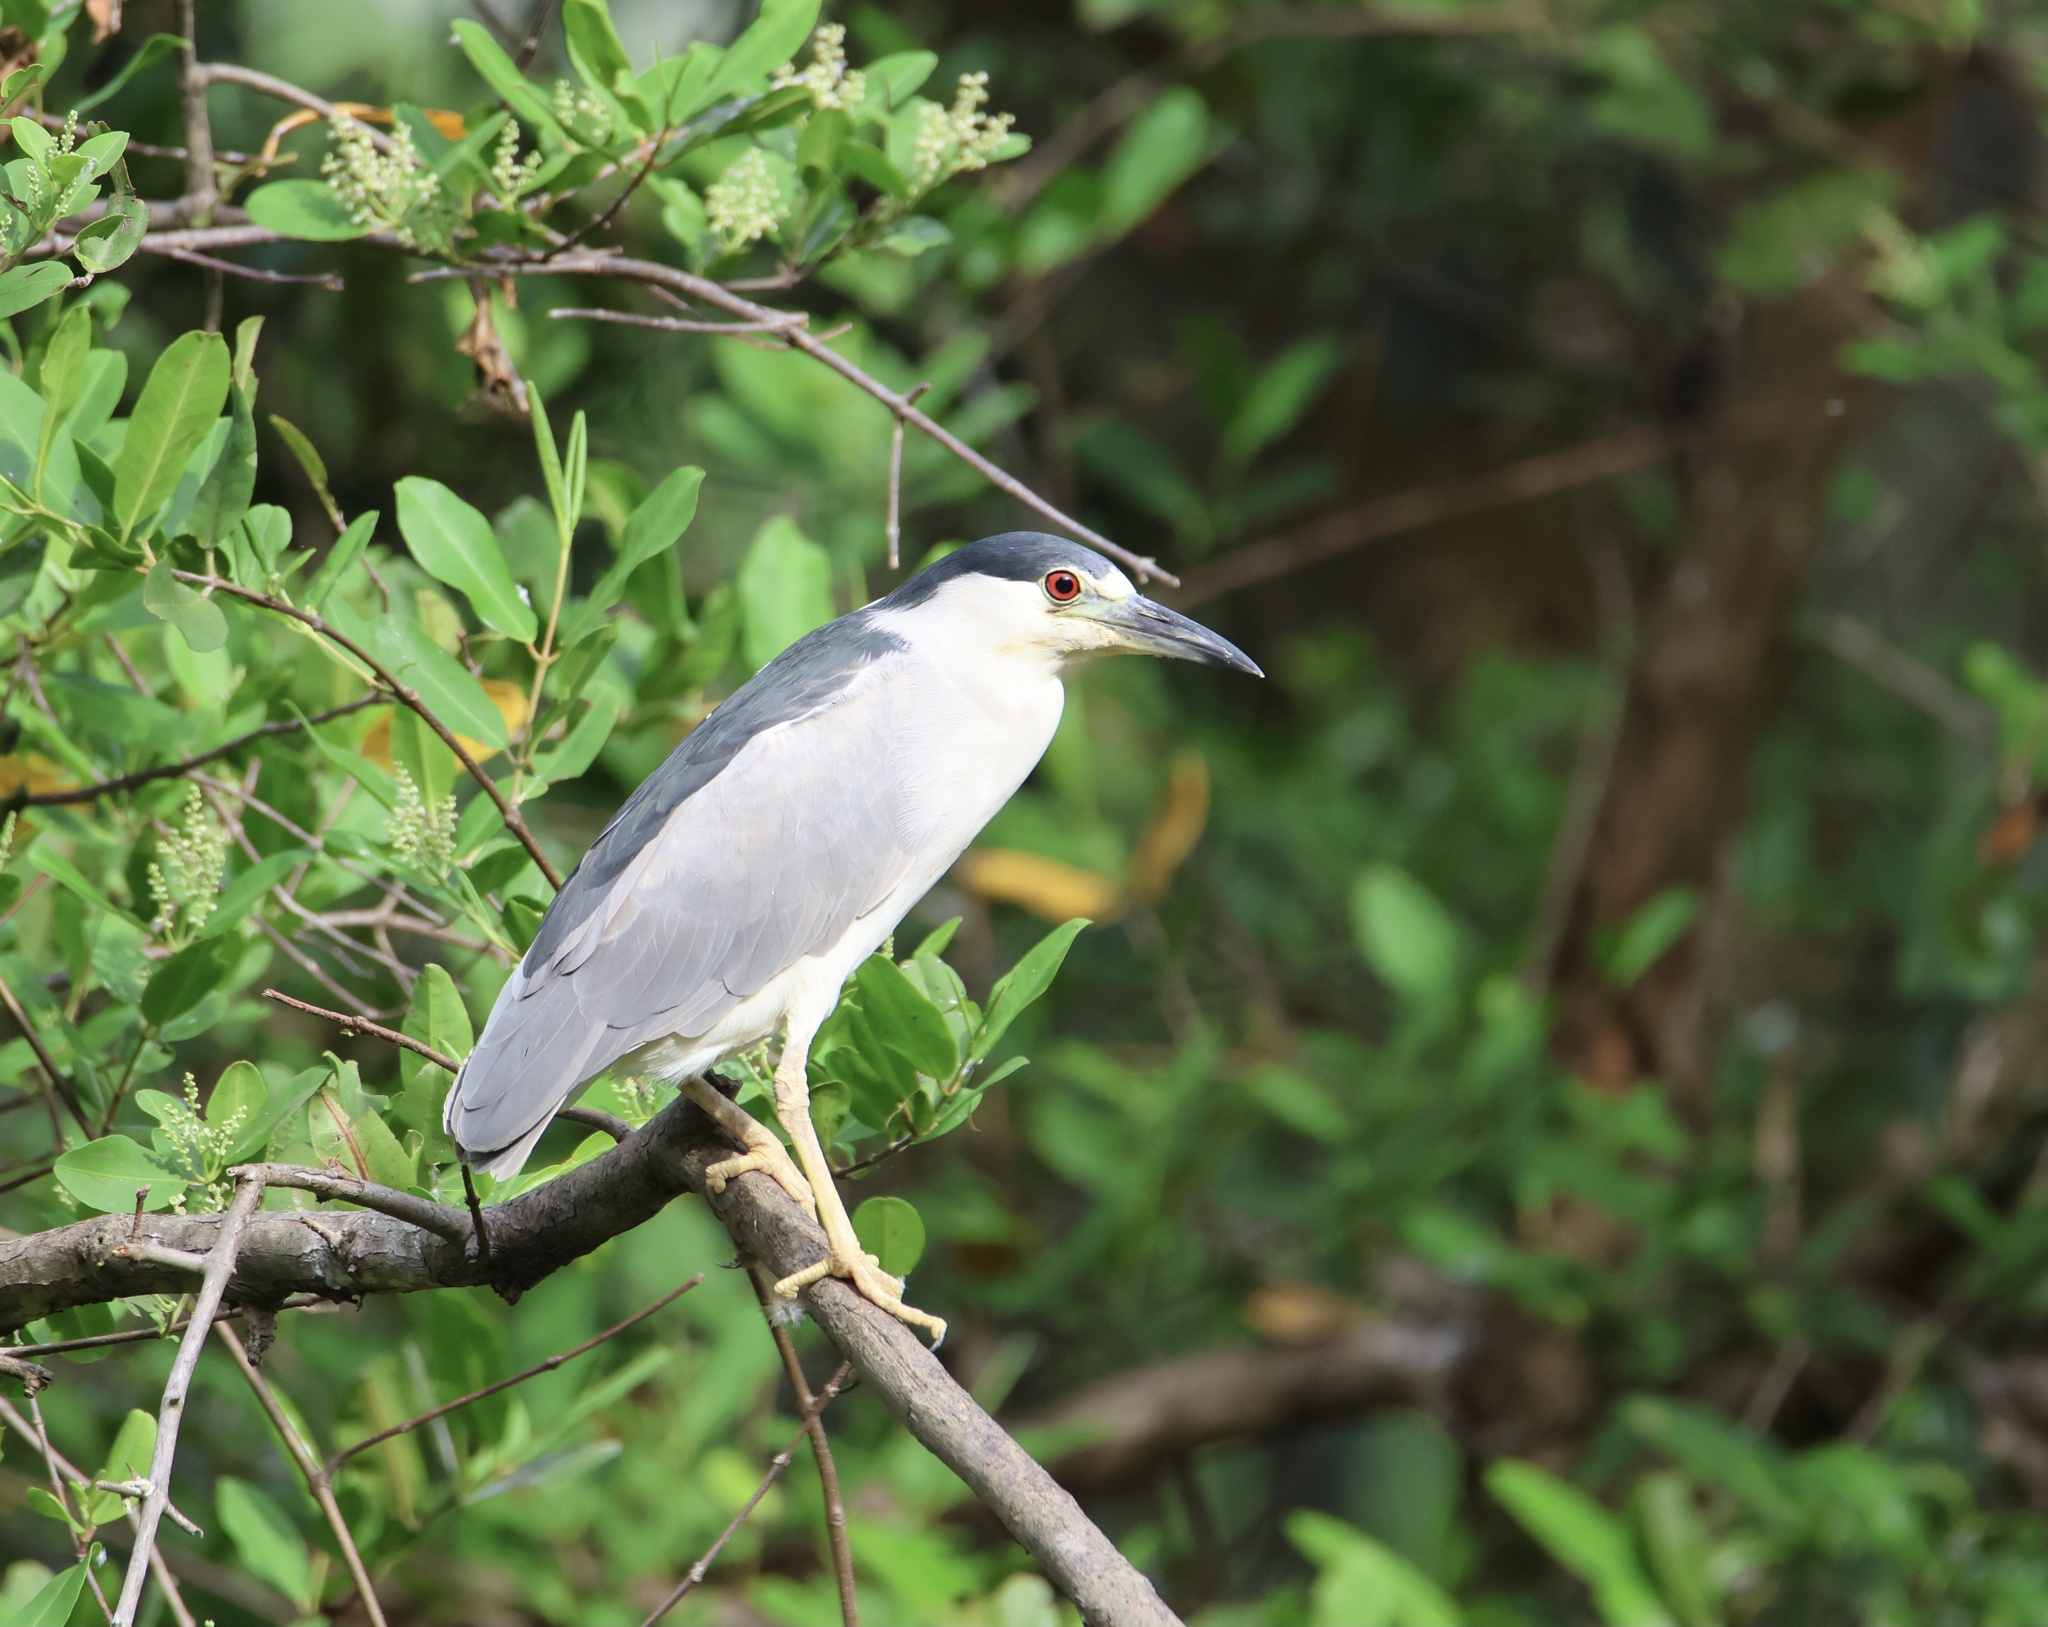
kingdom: Animalia
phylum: Chordata
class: Aves
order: Pelecaniformes
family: Ardeidae
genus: Nycticorax
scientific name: Nycticorax nycticorax
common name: Black-crowned night heron
